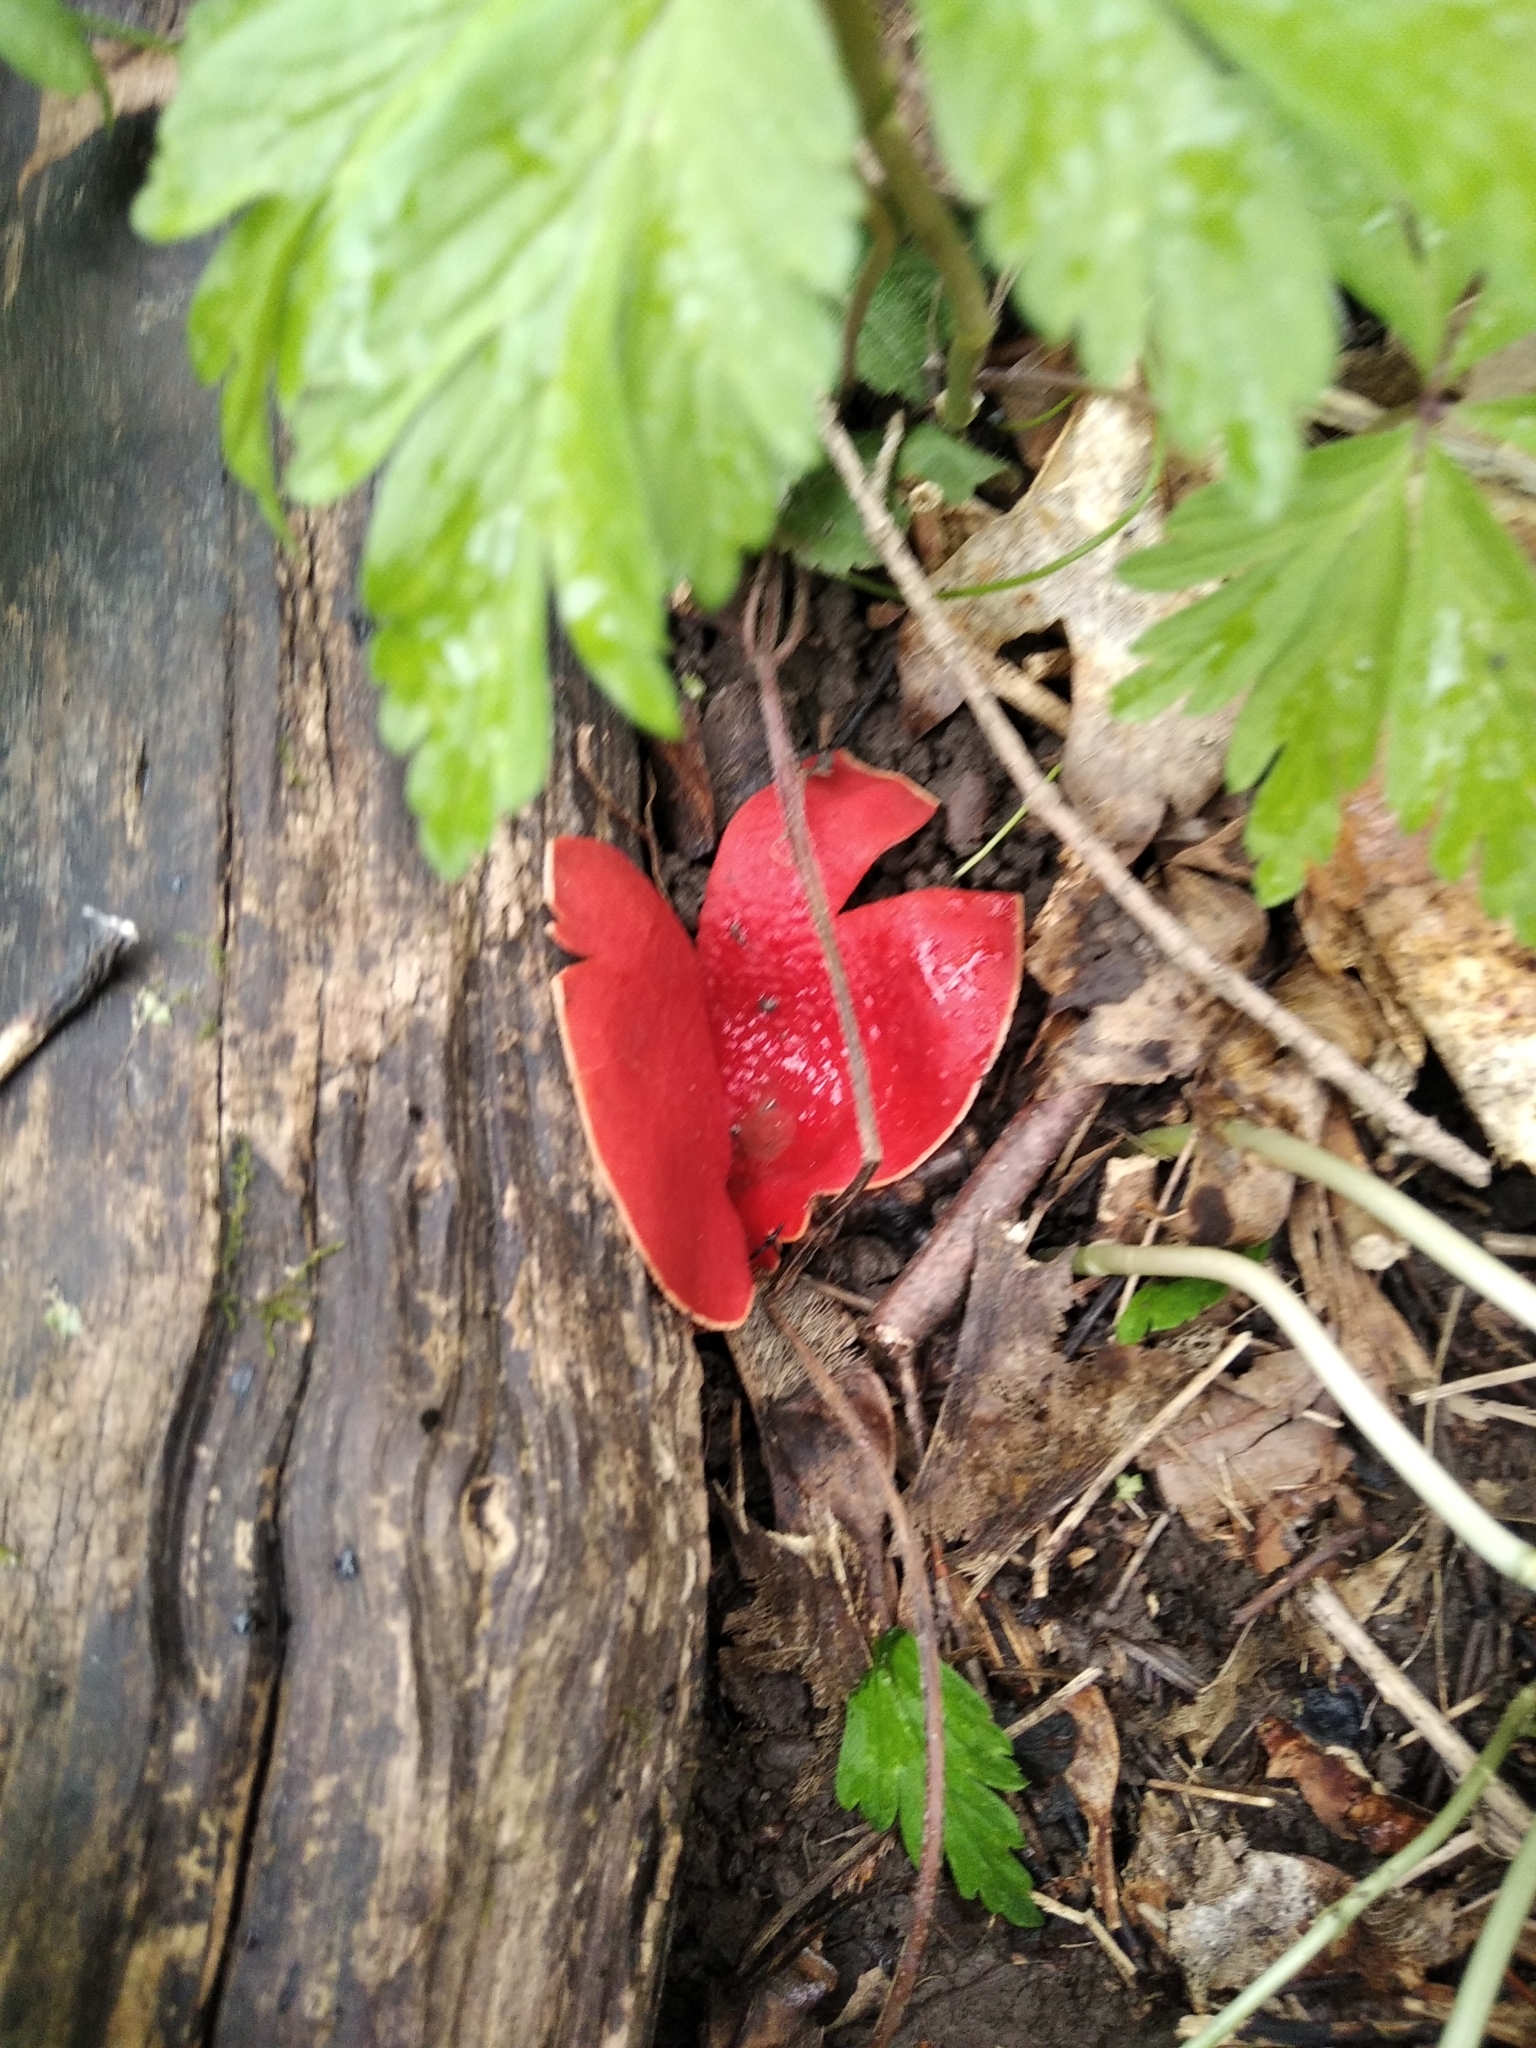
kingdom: Fungi
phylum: Ascomycota
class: Pezizomycetes
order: Pezizales
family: Sarcoscyphaceae
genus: Sarcoscypha
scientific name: Sarcoscypha austriaca
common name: Scarlet elfcup
